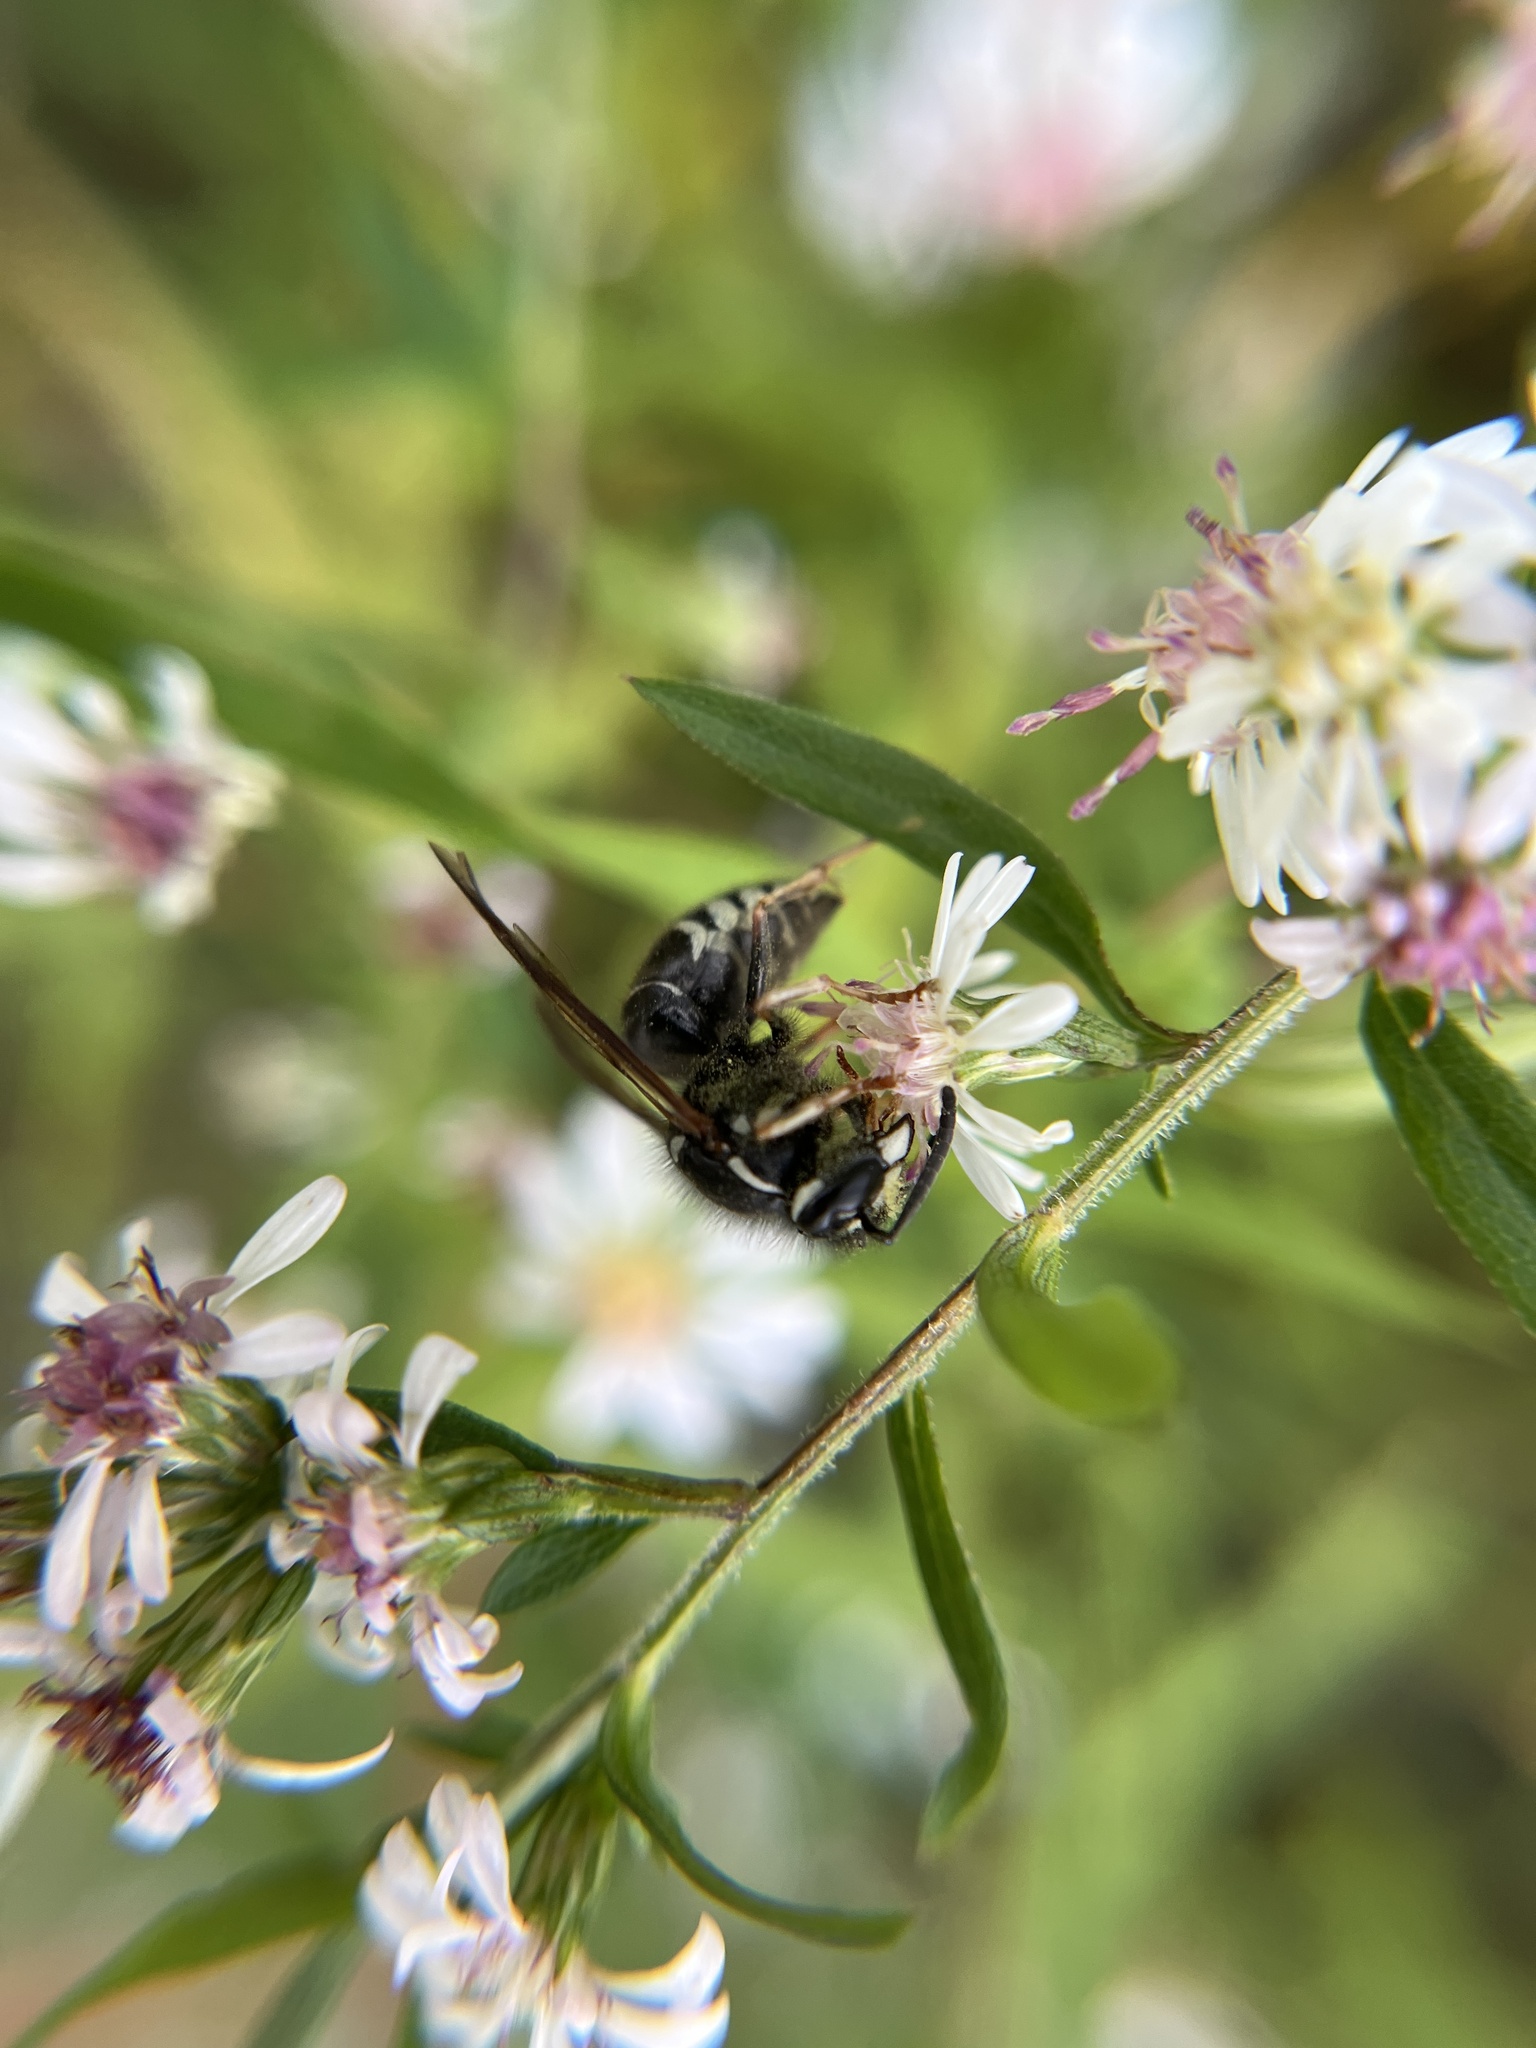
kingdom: Animalia
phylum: Arthropoda
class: Insecta
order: Hymenoptera
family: Vespidae
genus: Dolichovespula
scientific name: Dolichovespula maculata
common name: Bald-faced hornet
